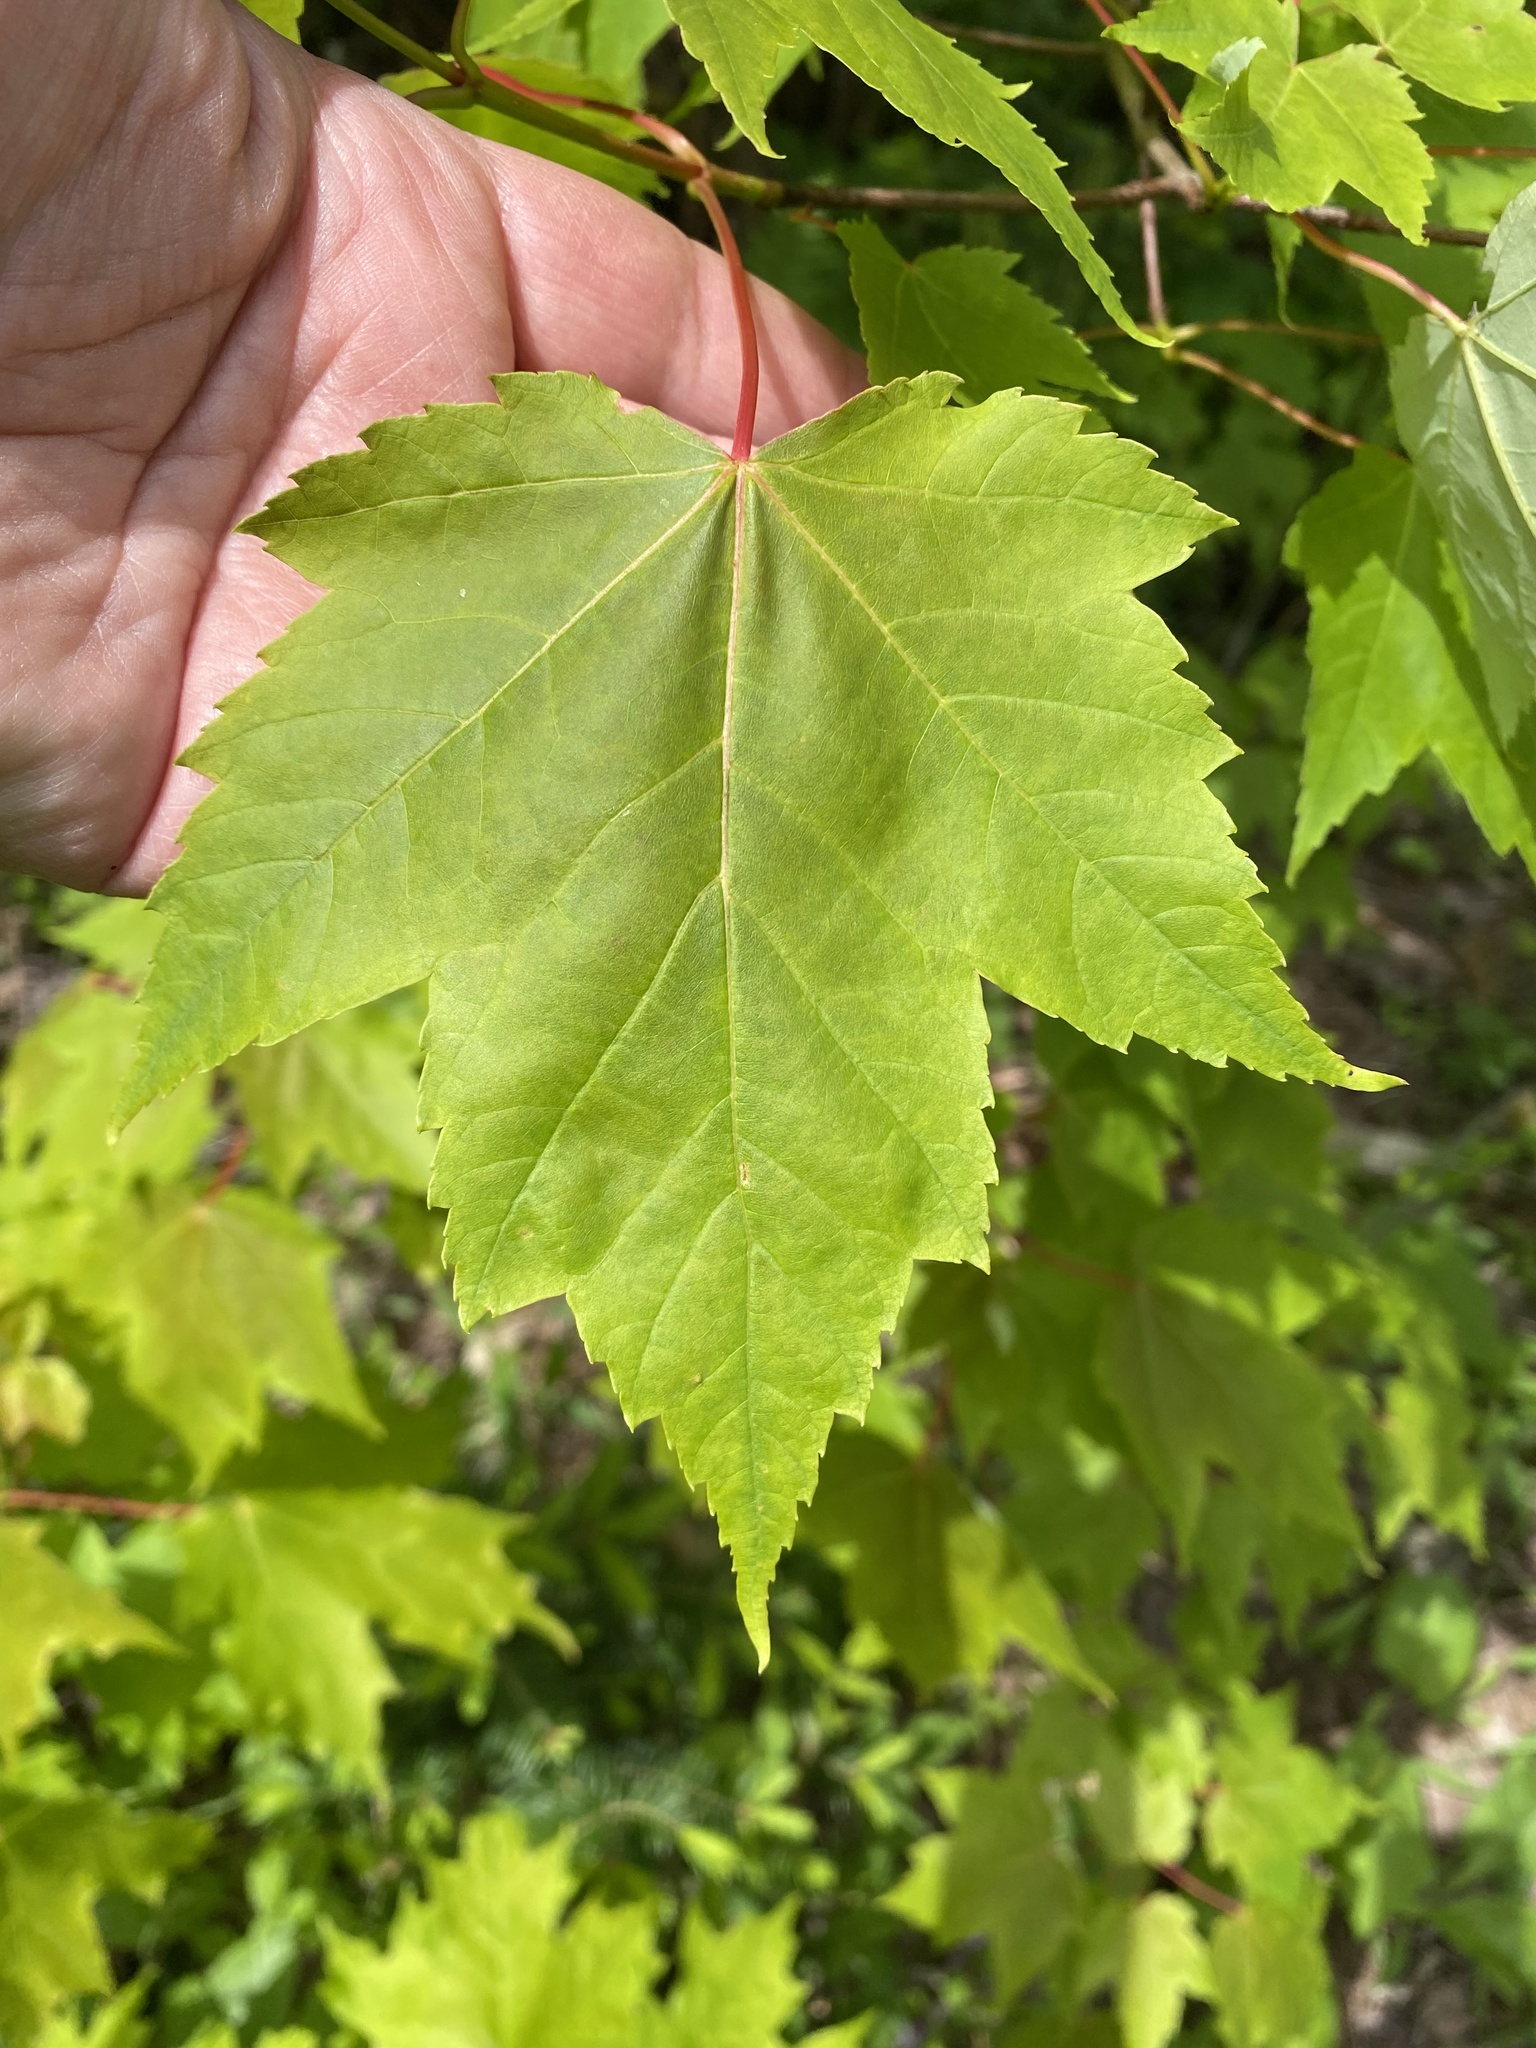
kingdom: Plantae
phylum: Tracheophyta
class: Magnoliopsida
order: Sapindales
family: Sapindaceae
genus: Acer
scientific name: Acer rubrum
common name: Red maple
